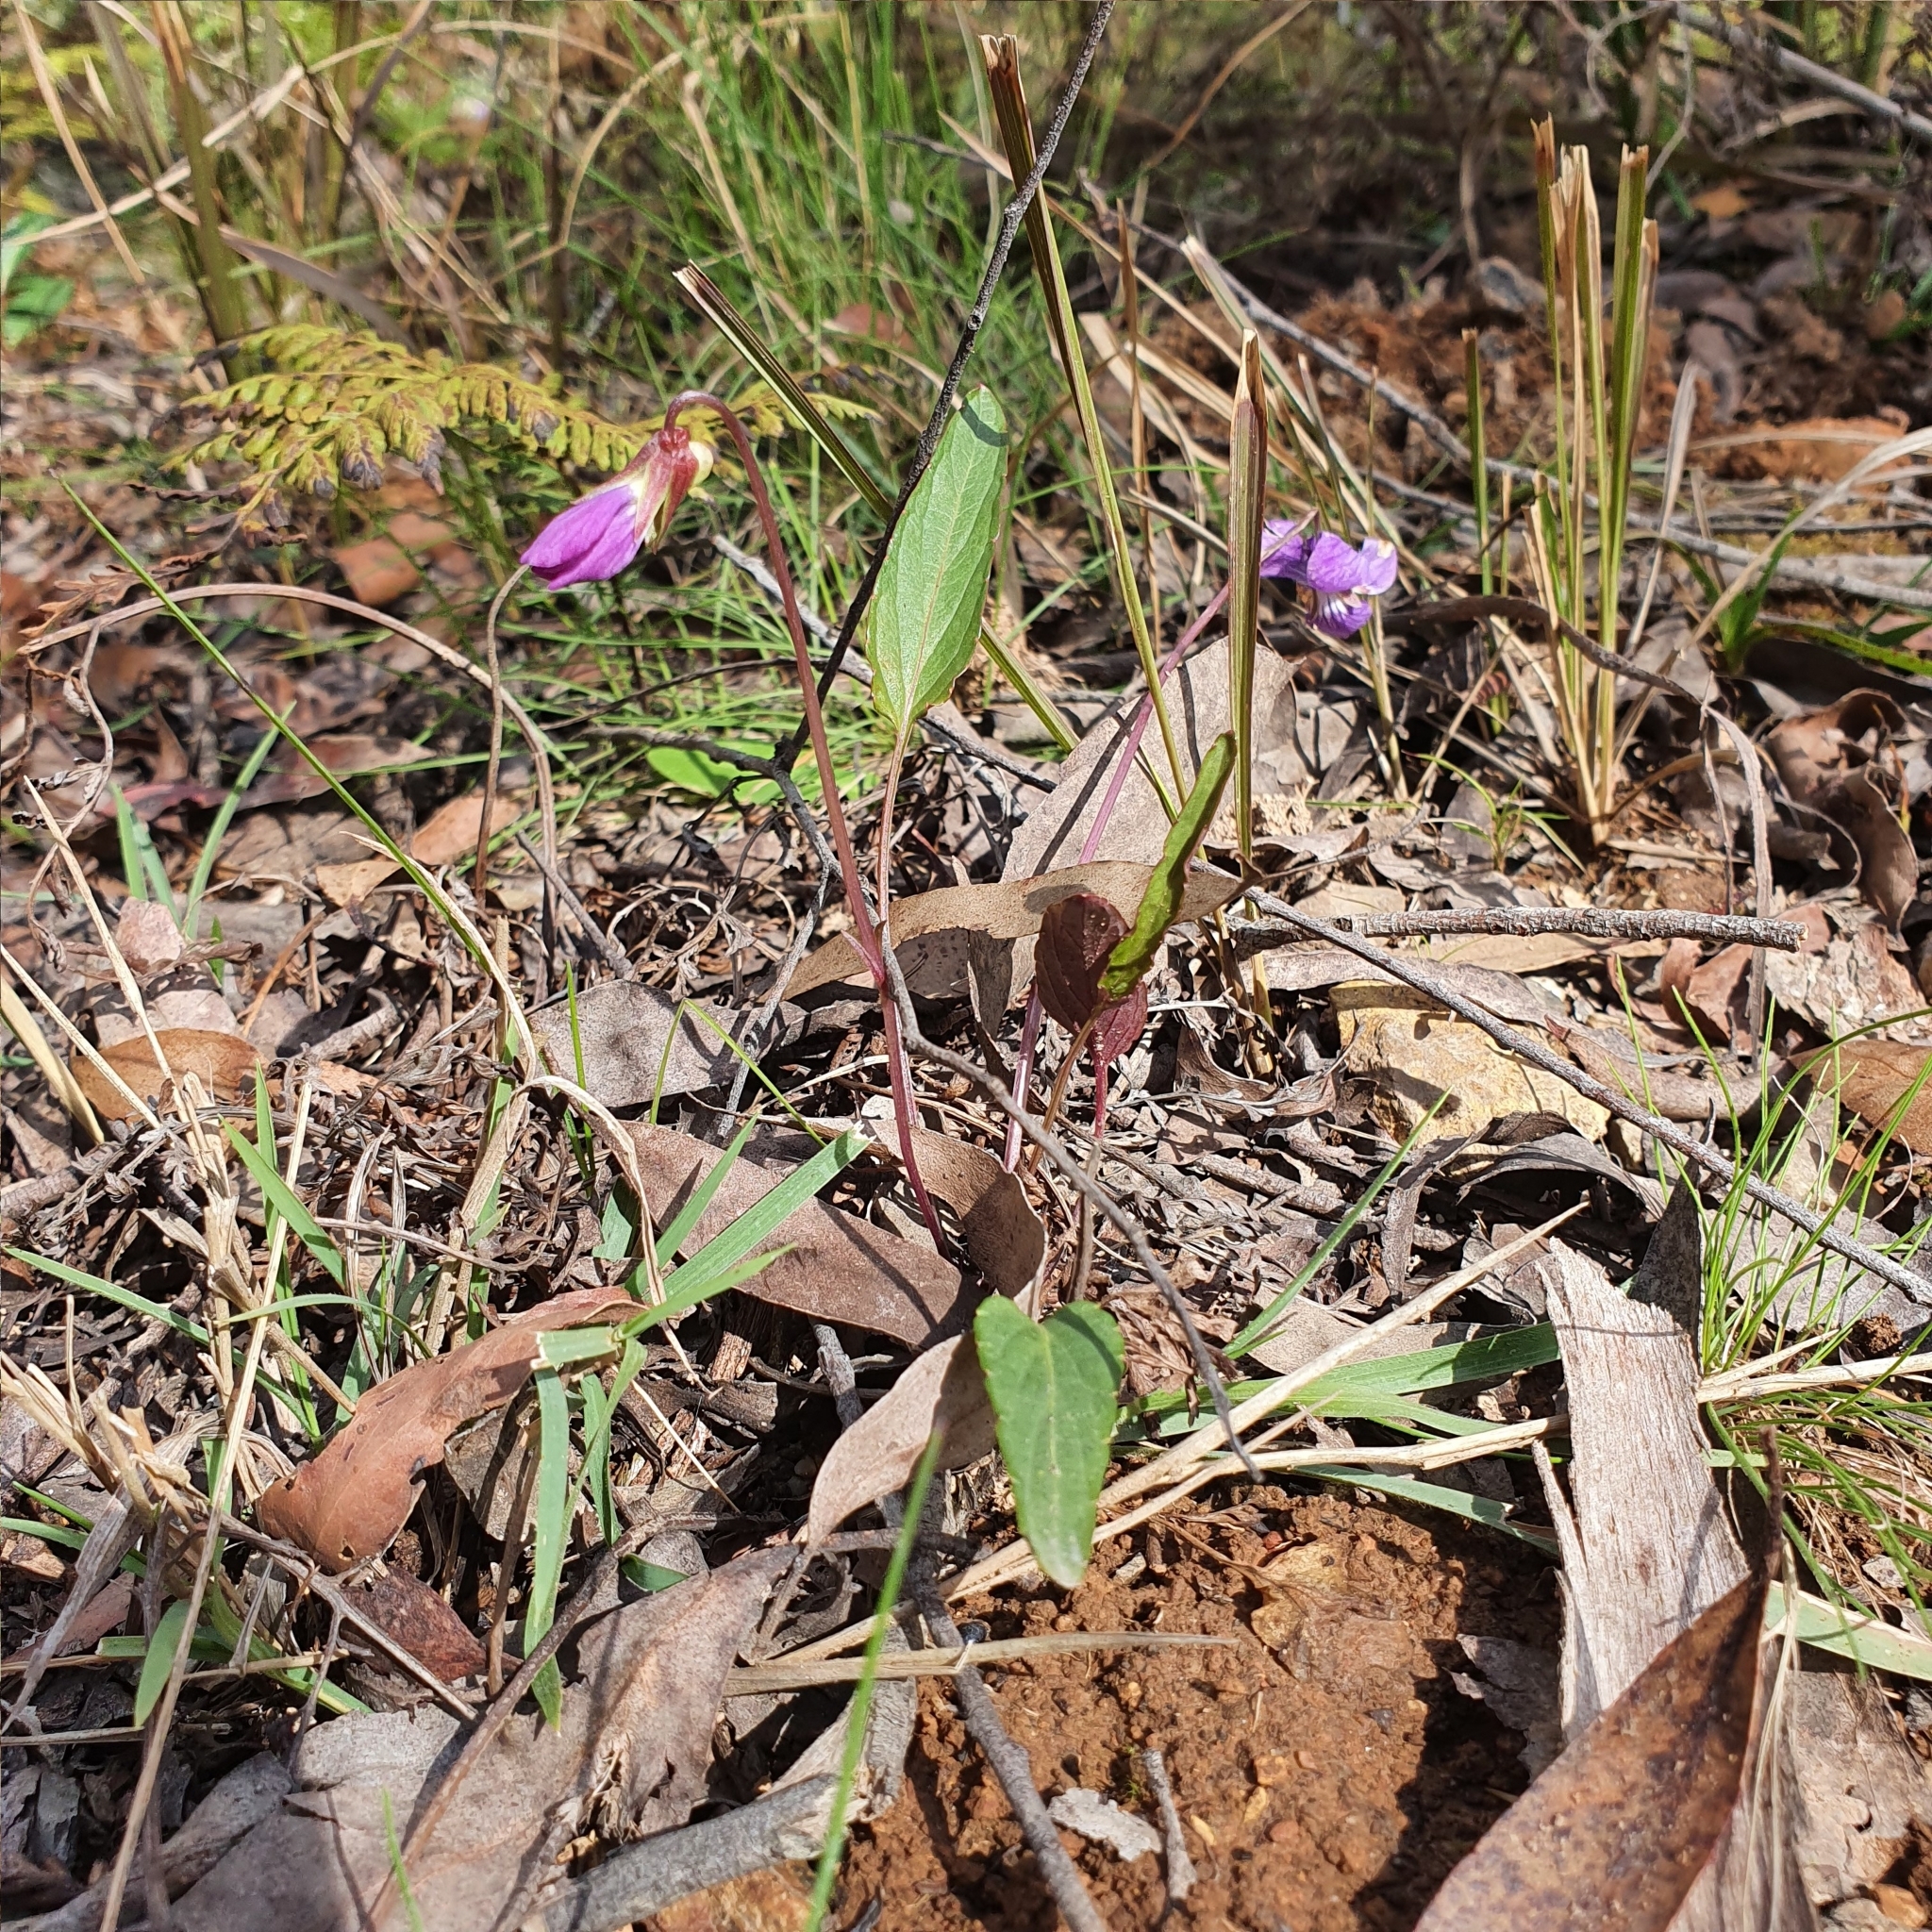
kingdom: Plantae
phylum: Tracheophyta
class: Magnoliopsida
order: Malpighiales
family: Violaceae
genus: Viola
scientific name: Viola betonicifolia
